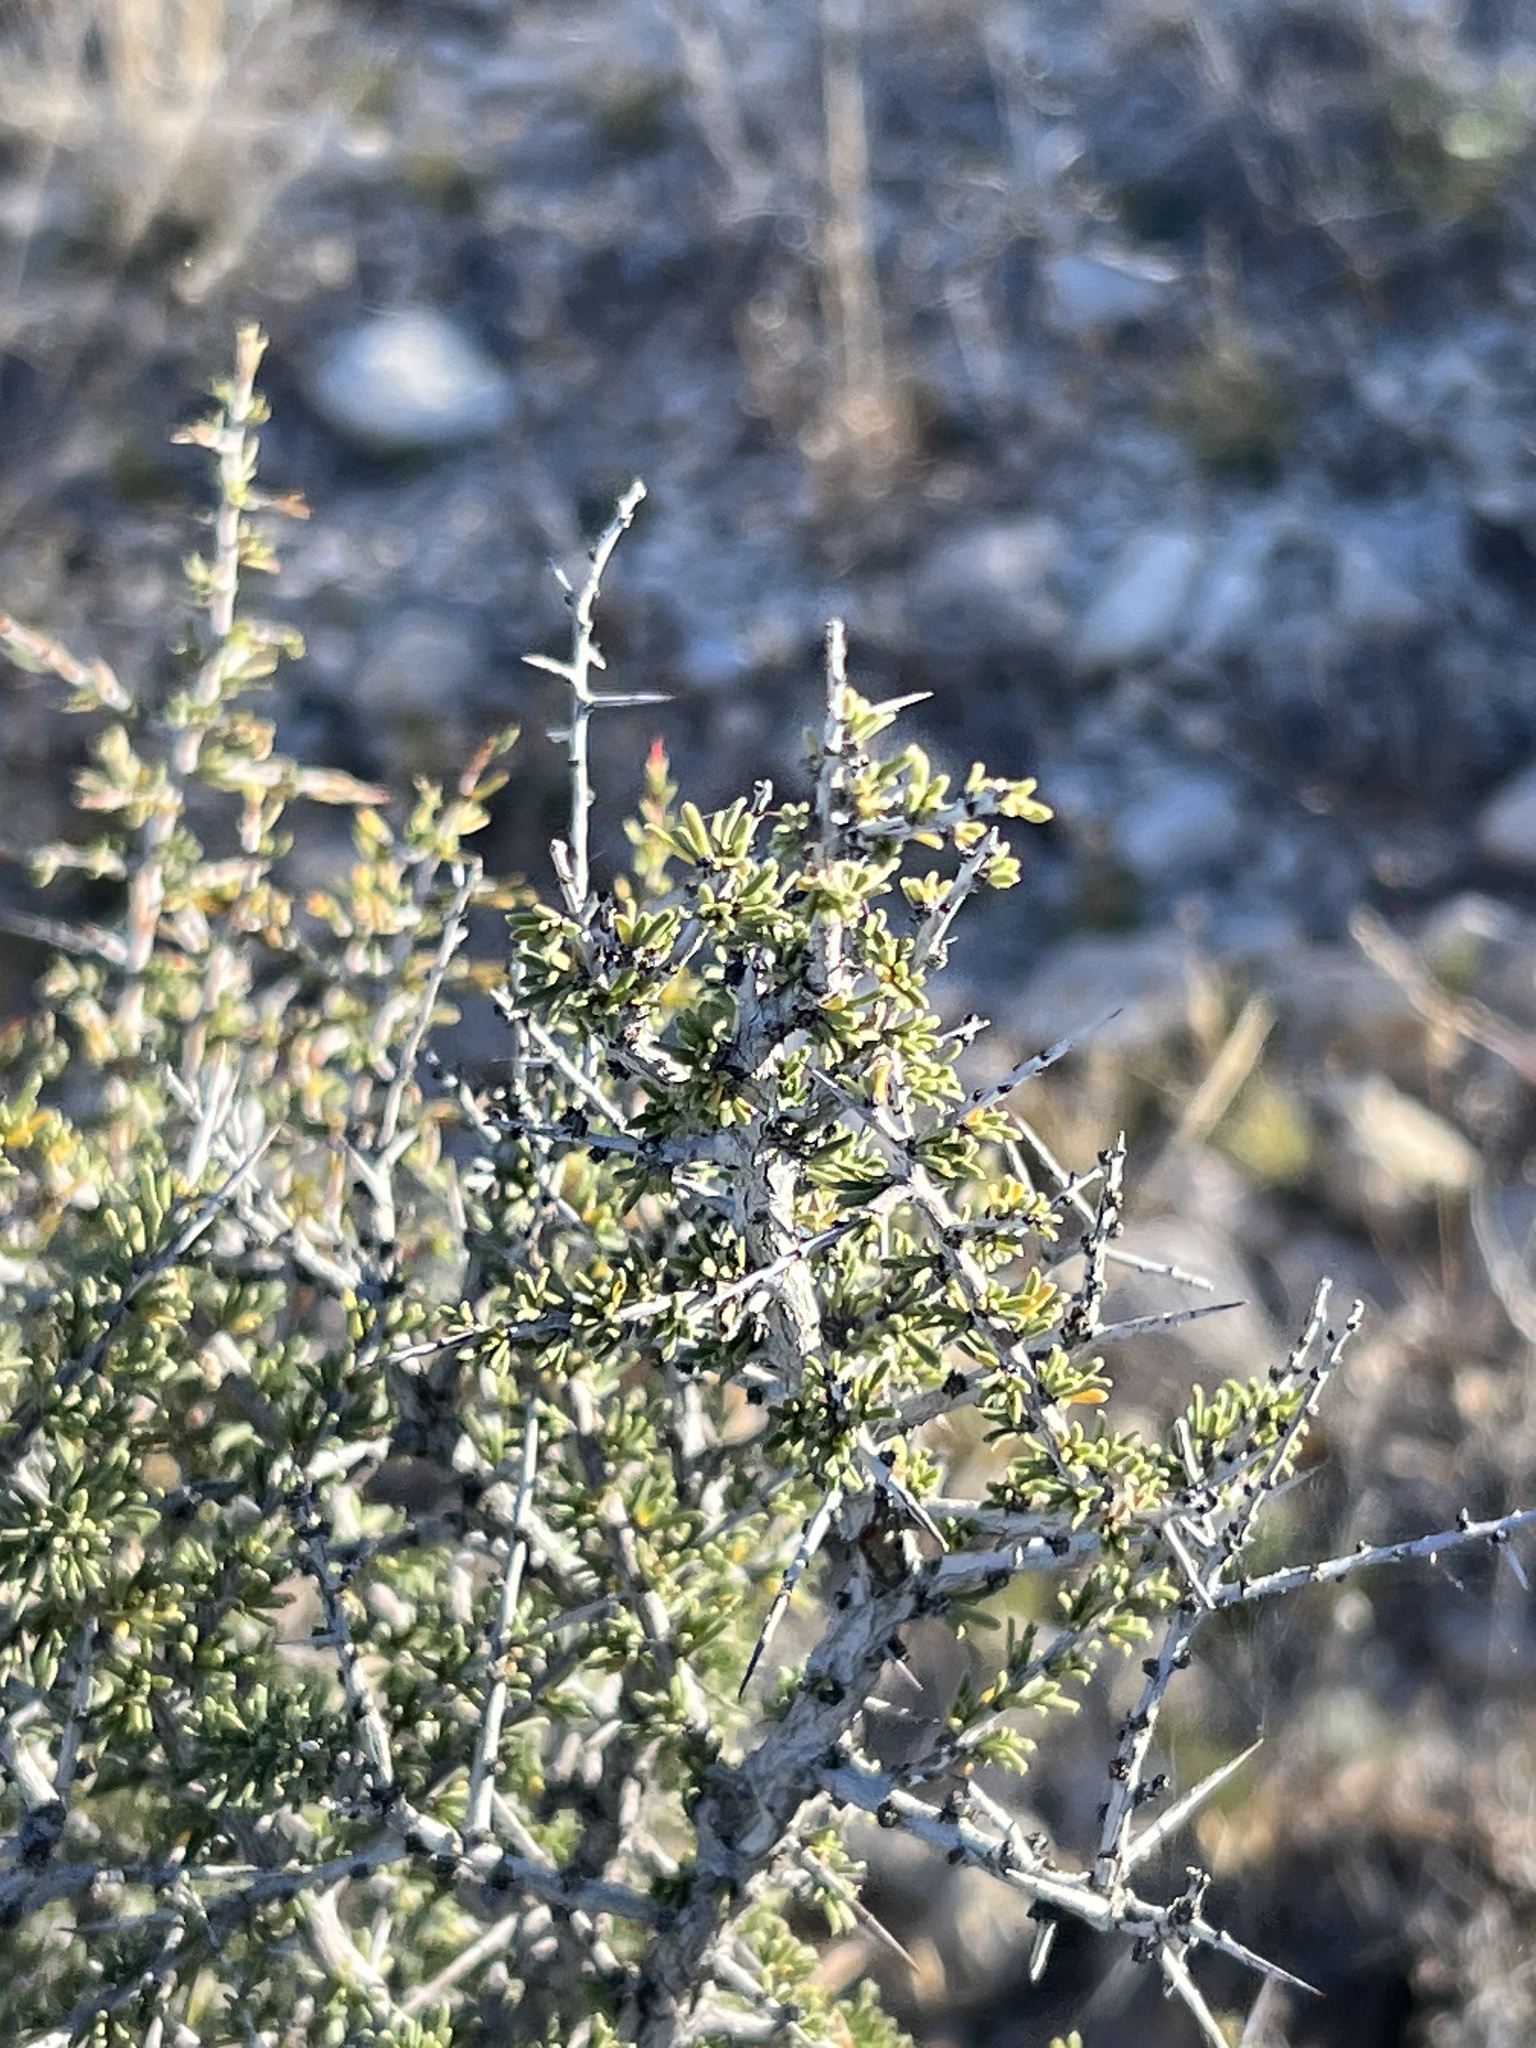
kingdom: Plantae
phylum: Tracheophyta
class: Magnoliopsida
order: Rosales
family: Rhamnaceae
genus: Condalia
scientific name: Condalia ericoides
